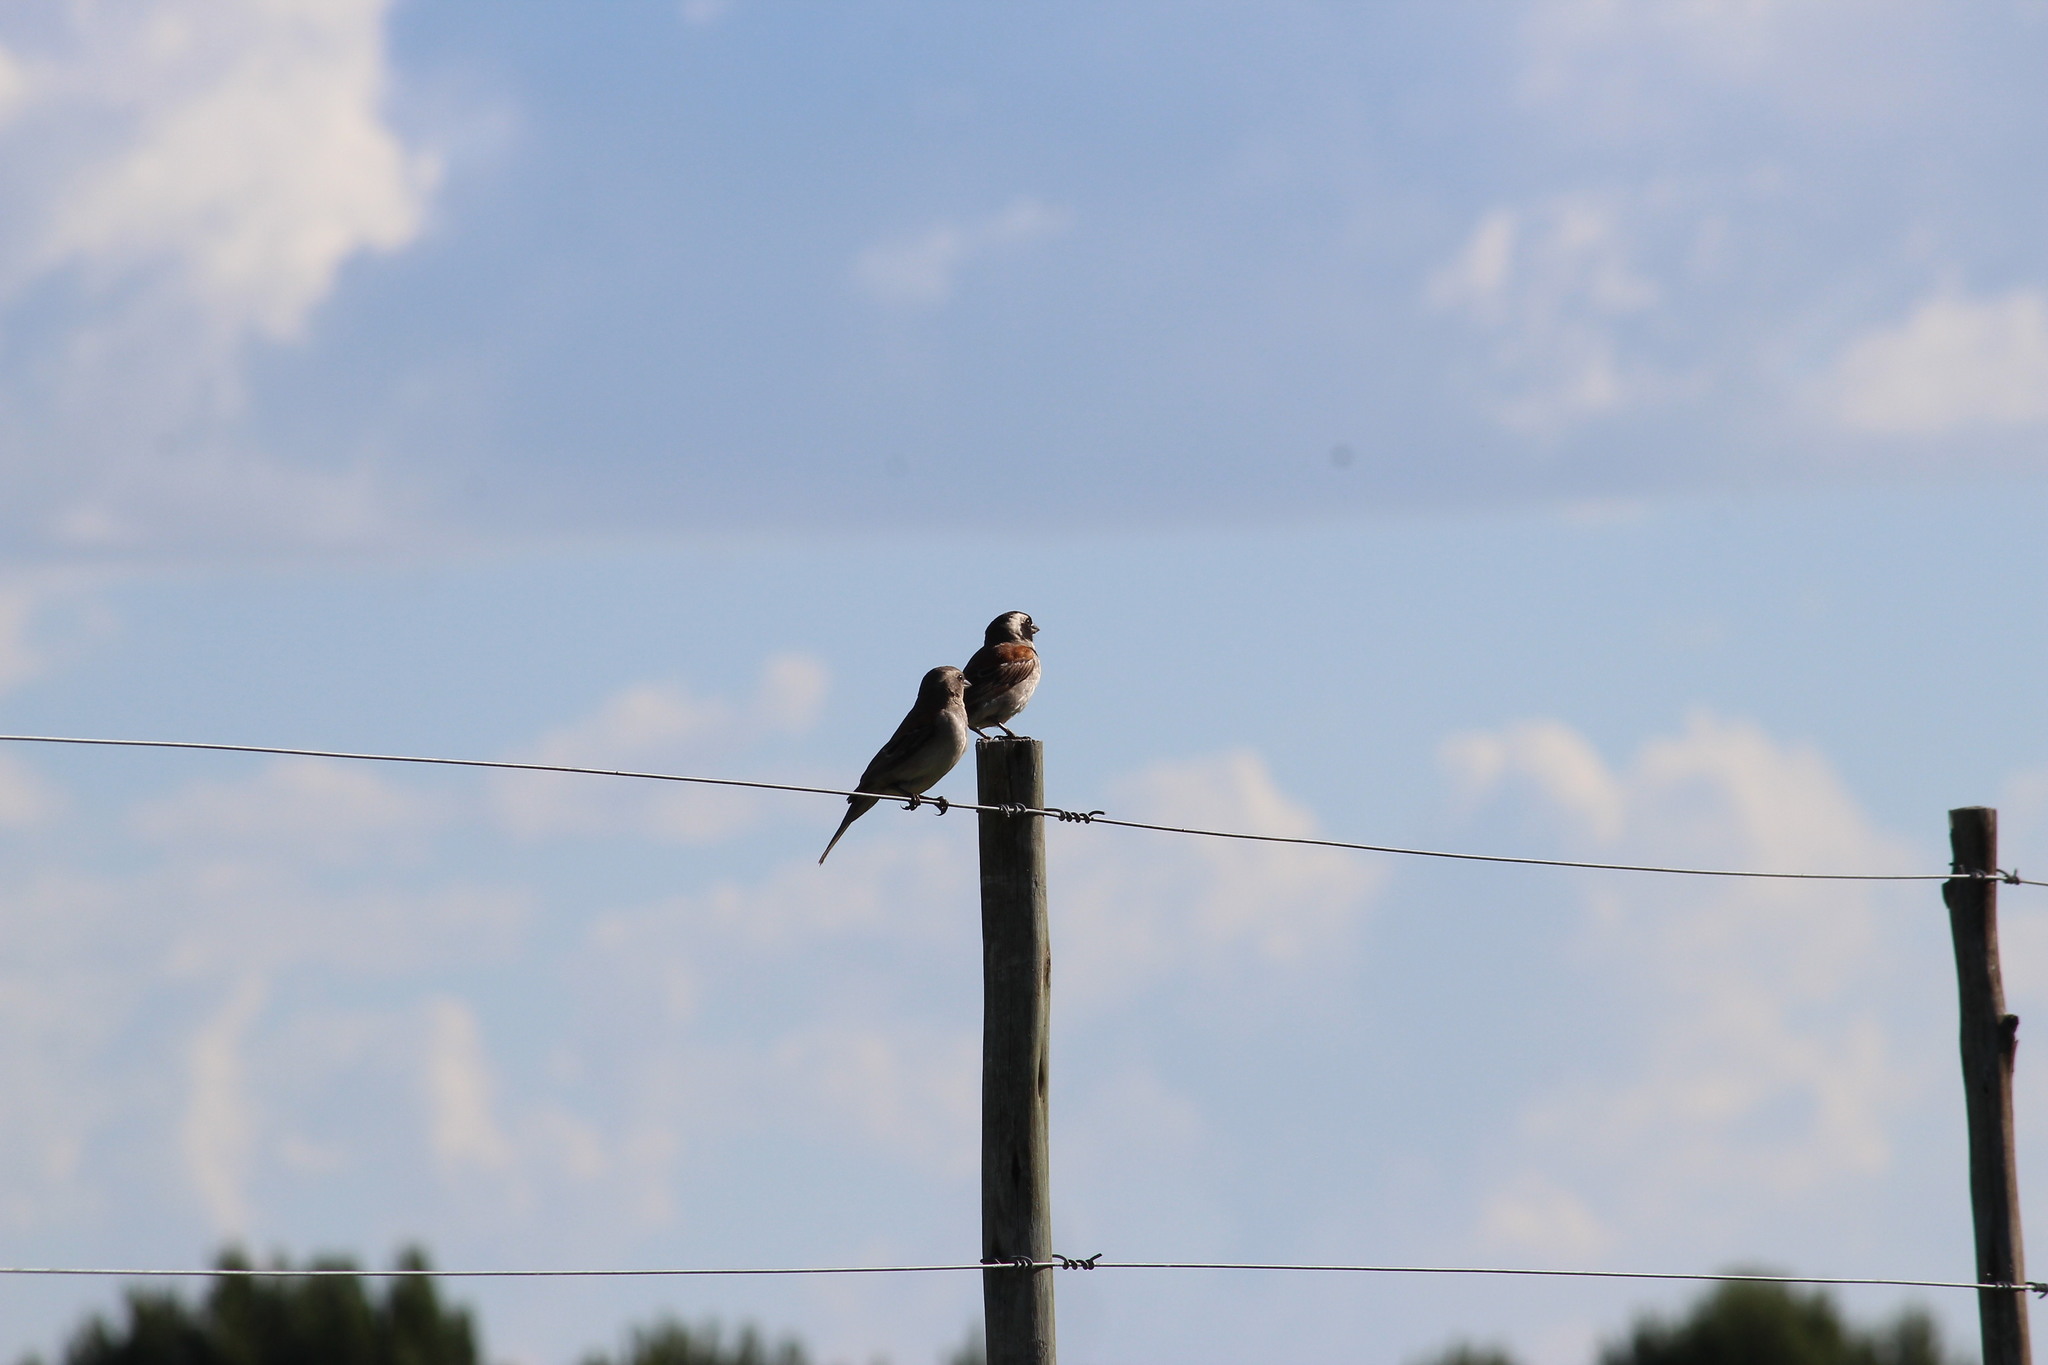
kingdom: Animalia
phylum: Chordata
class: Aves
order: Passeriformes
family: Passeridae
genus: Passer
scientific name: Passer melanurus
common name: Cape sparrow
